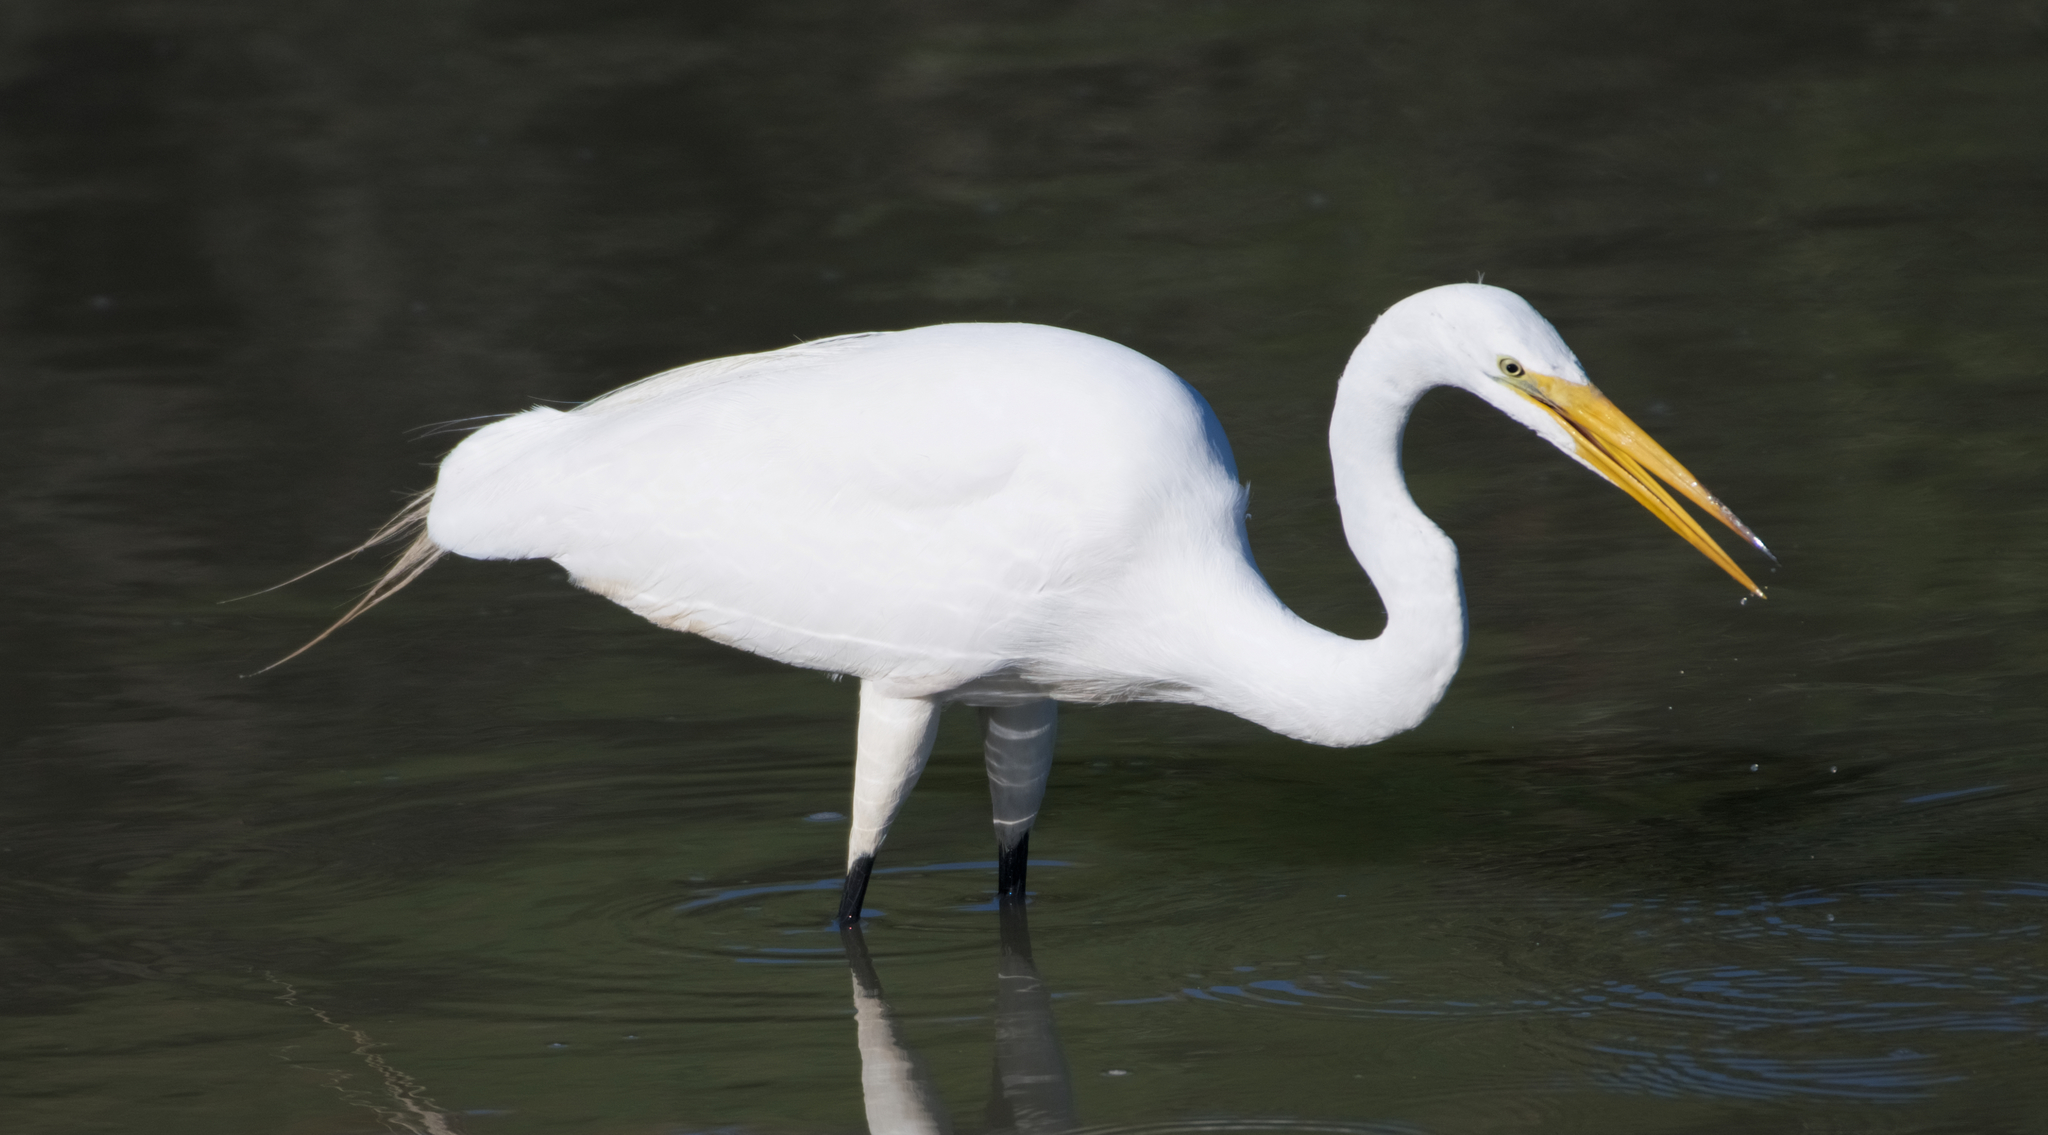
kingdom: Animalia
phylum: Chordata
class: Aves
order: Pelecaniformes
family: Ardeidae
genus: Ardea
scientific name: Ardea alba
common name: Great egret
